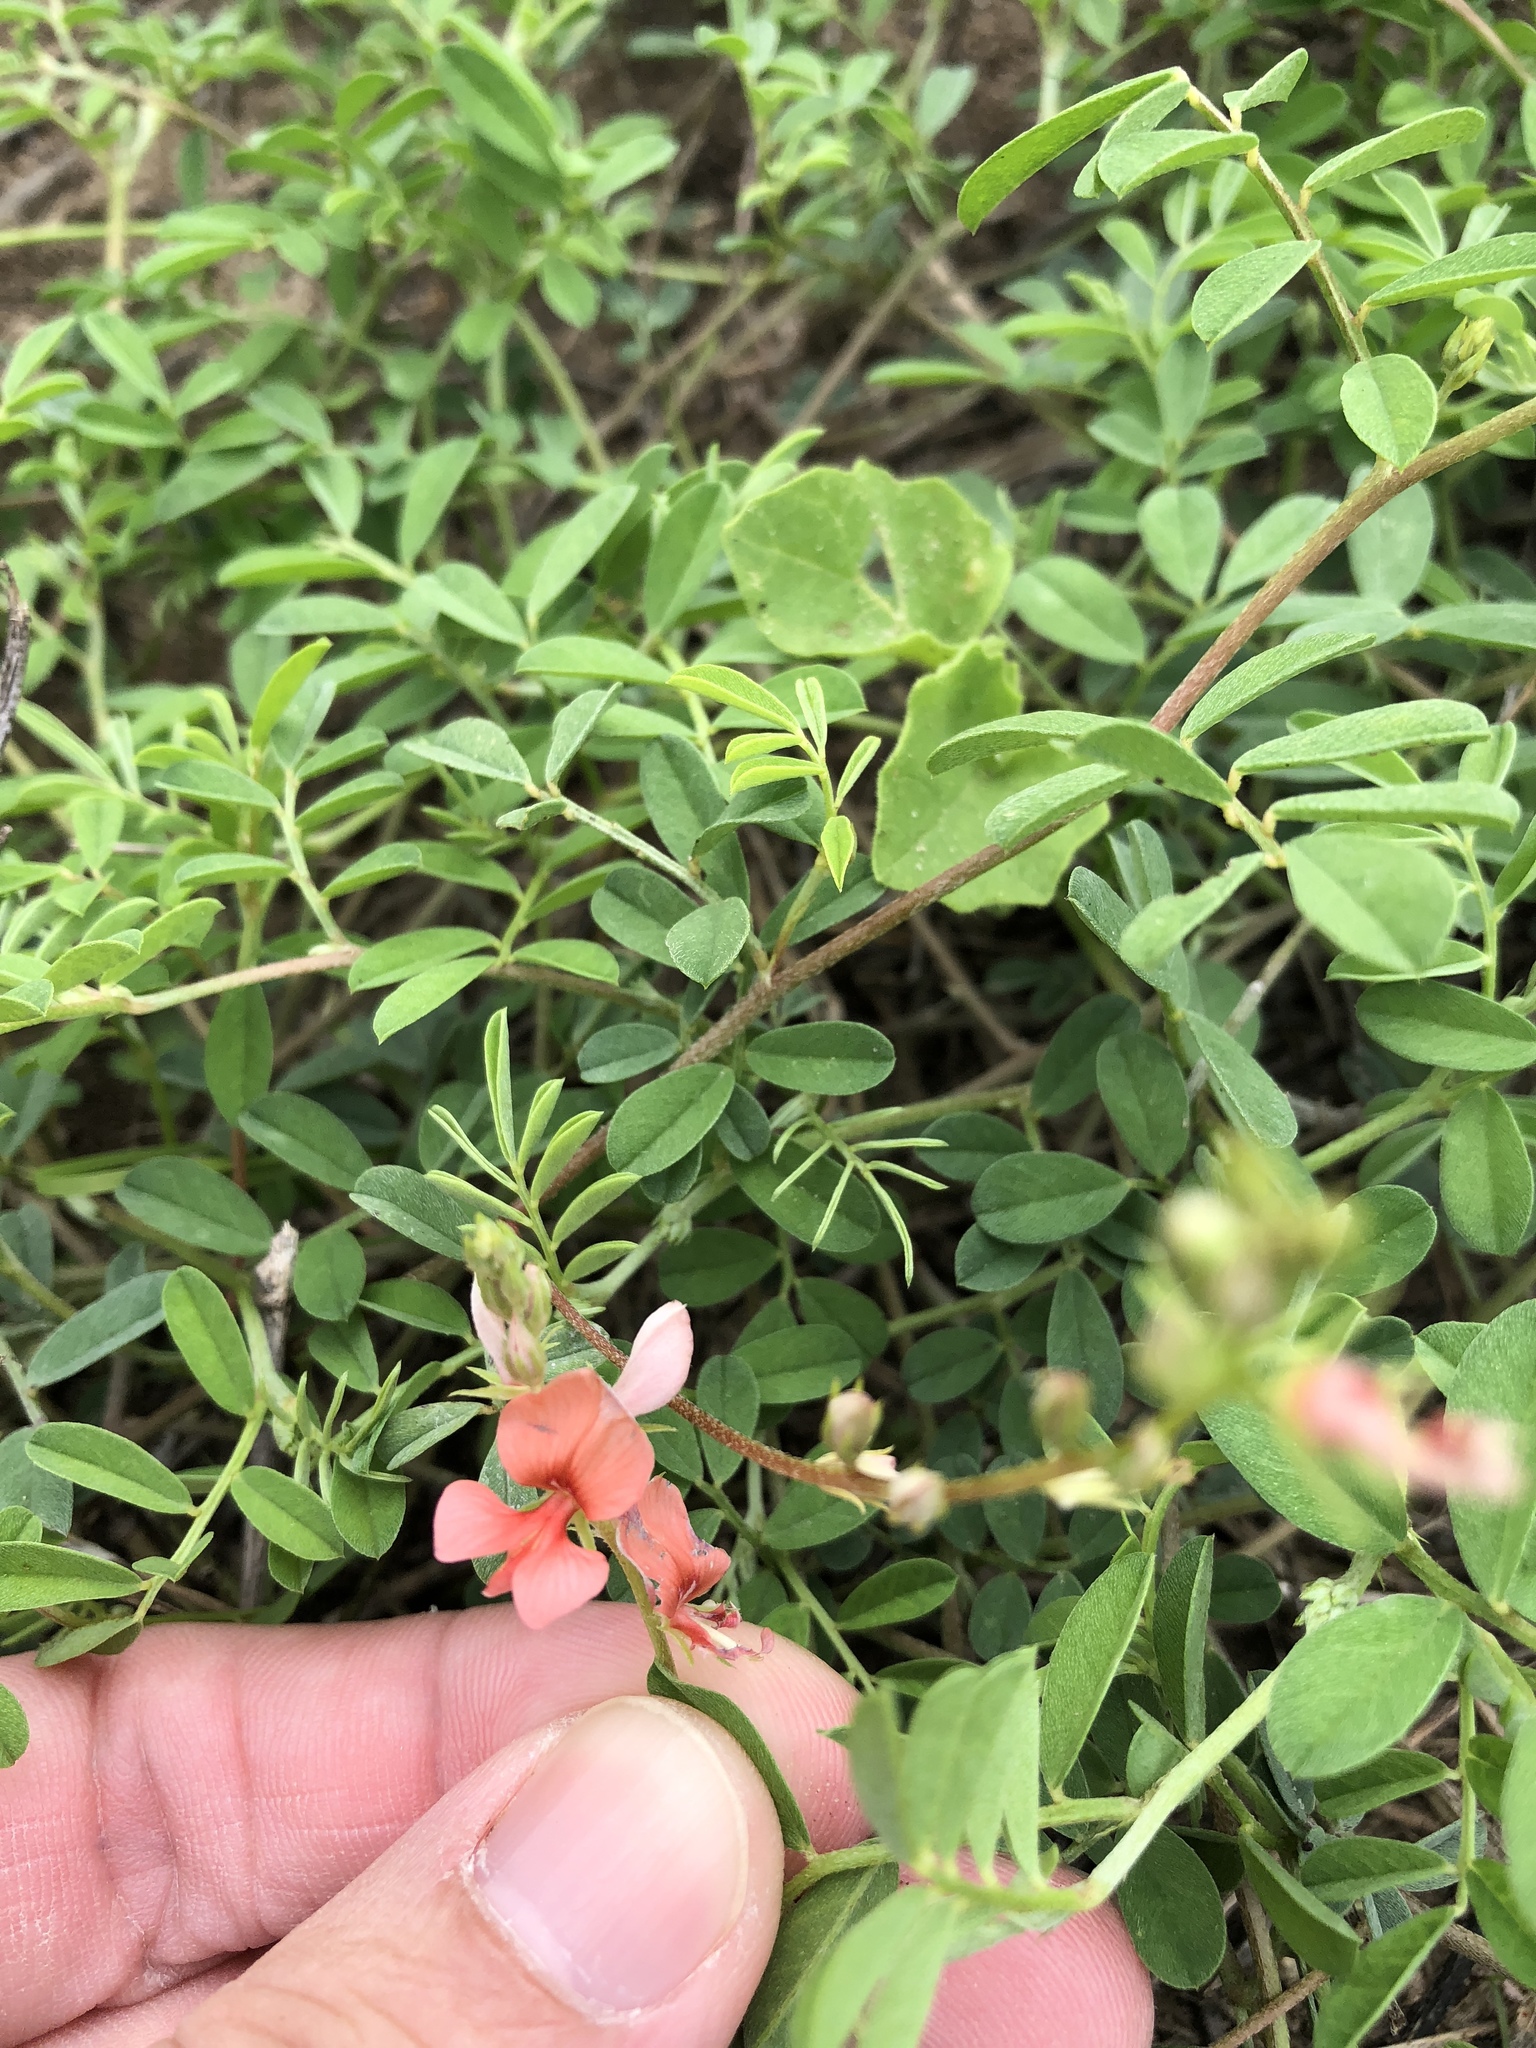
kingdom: Plantae
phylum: Tracheophyta
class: Magnoliopsida
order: Fabales
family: Fabaceae
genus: Indigofera
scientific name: Indigofera miniata
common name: Coast indigo
